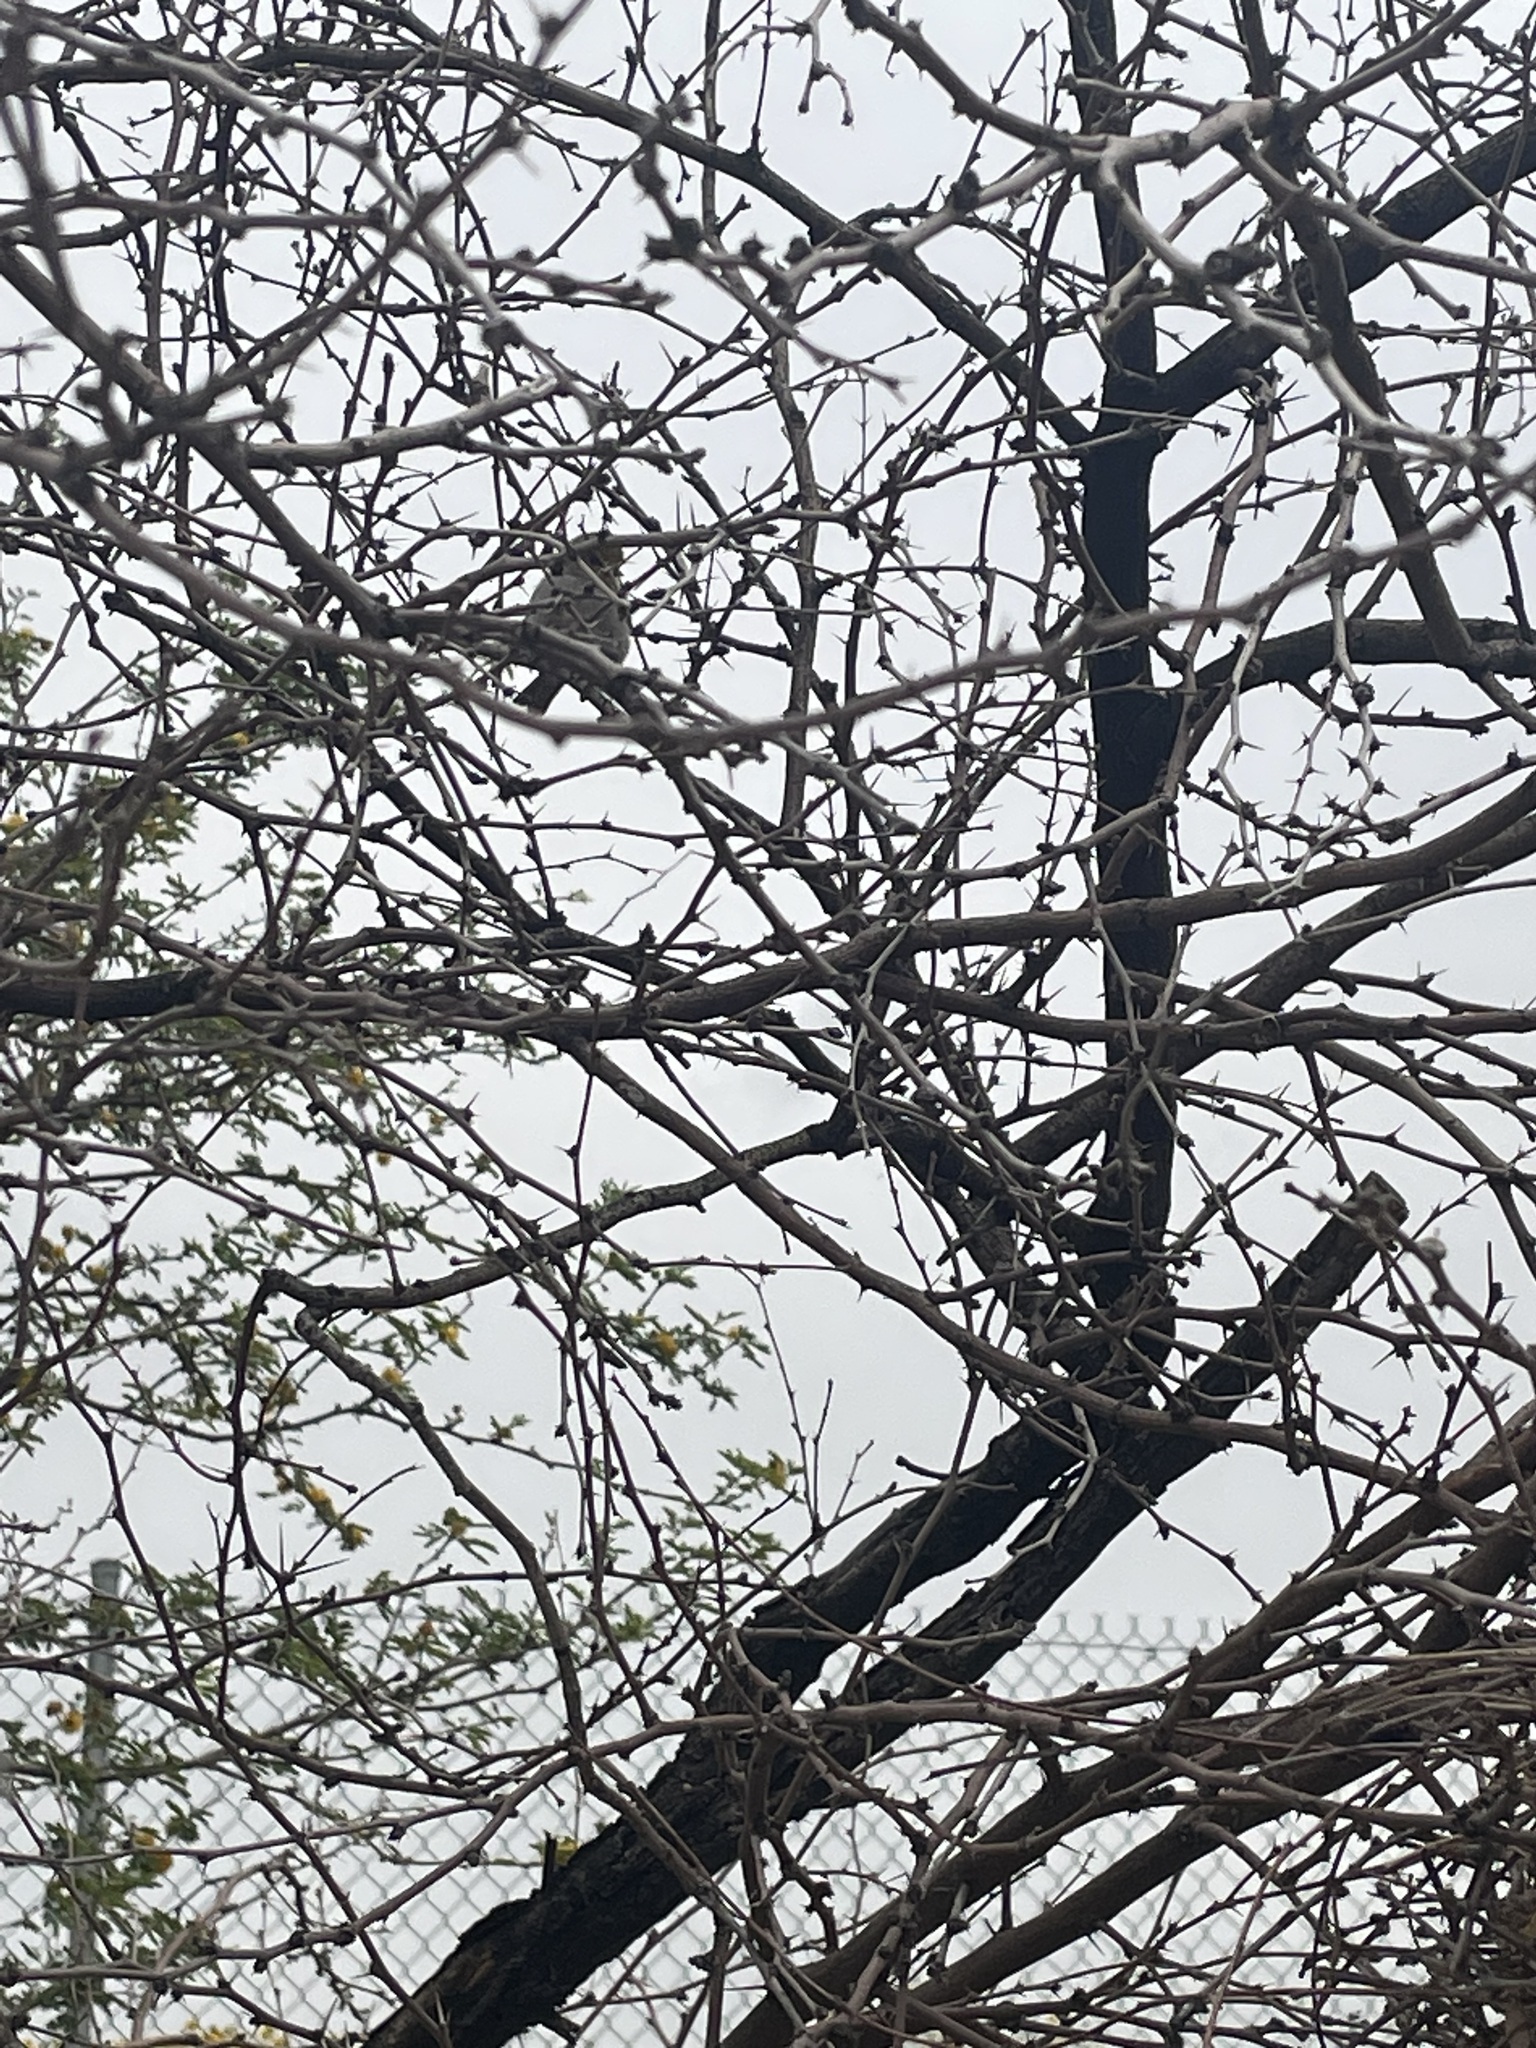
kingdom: Animalia
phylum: Chordata
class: Aves
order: Passeriformes
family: Remizidae
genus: Auriparus
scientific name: Auriparus flaviceps
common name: Verdin
